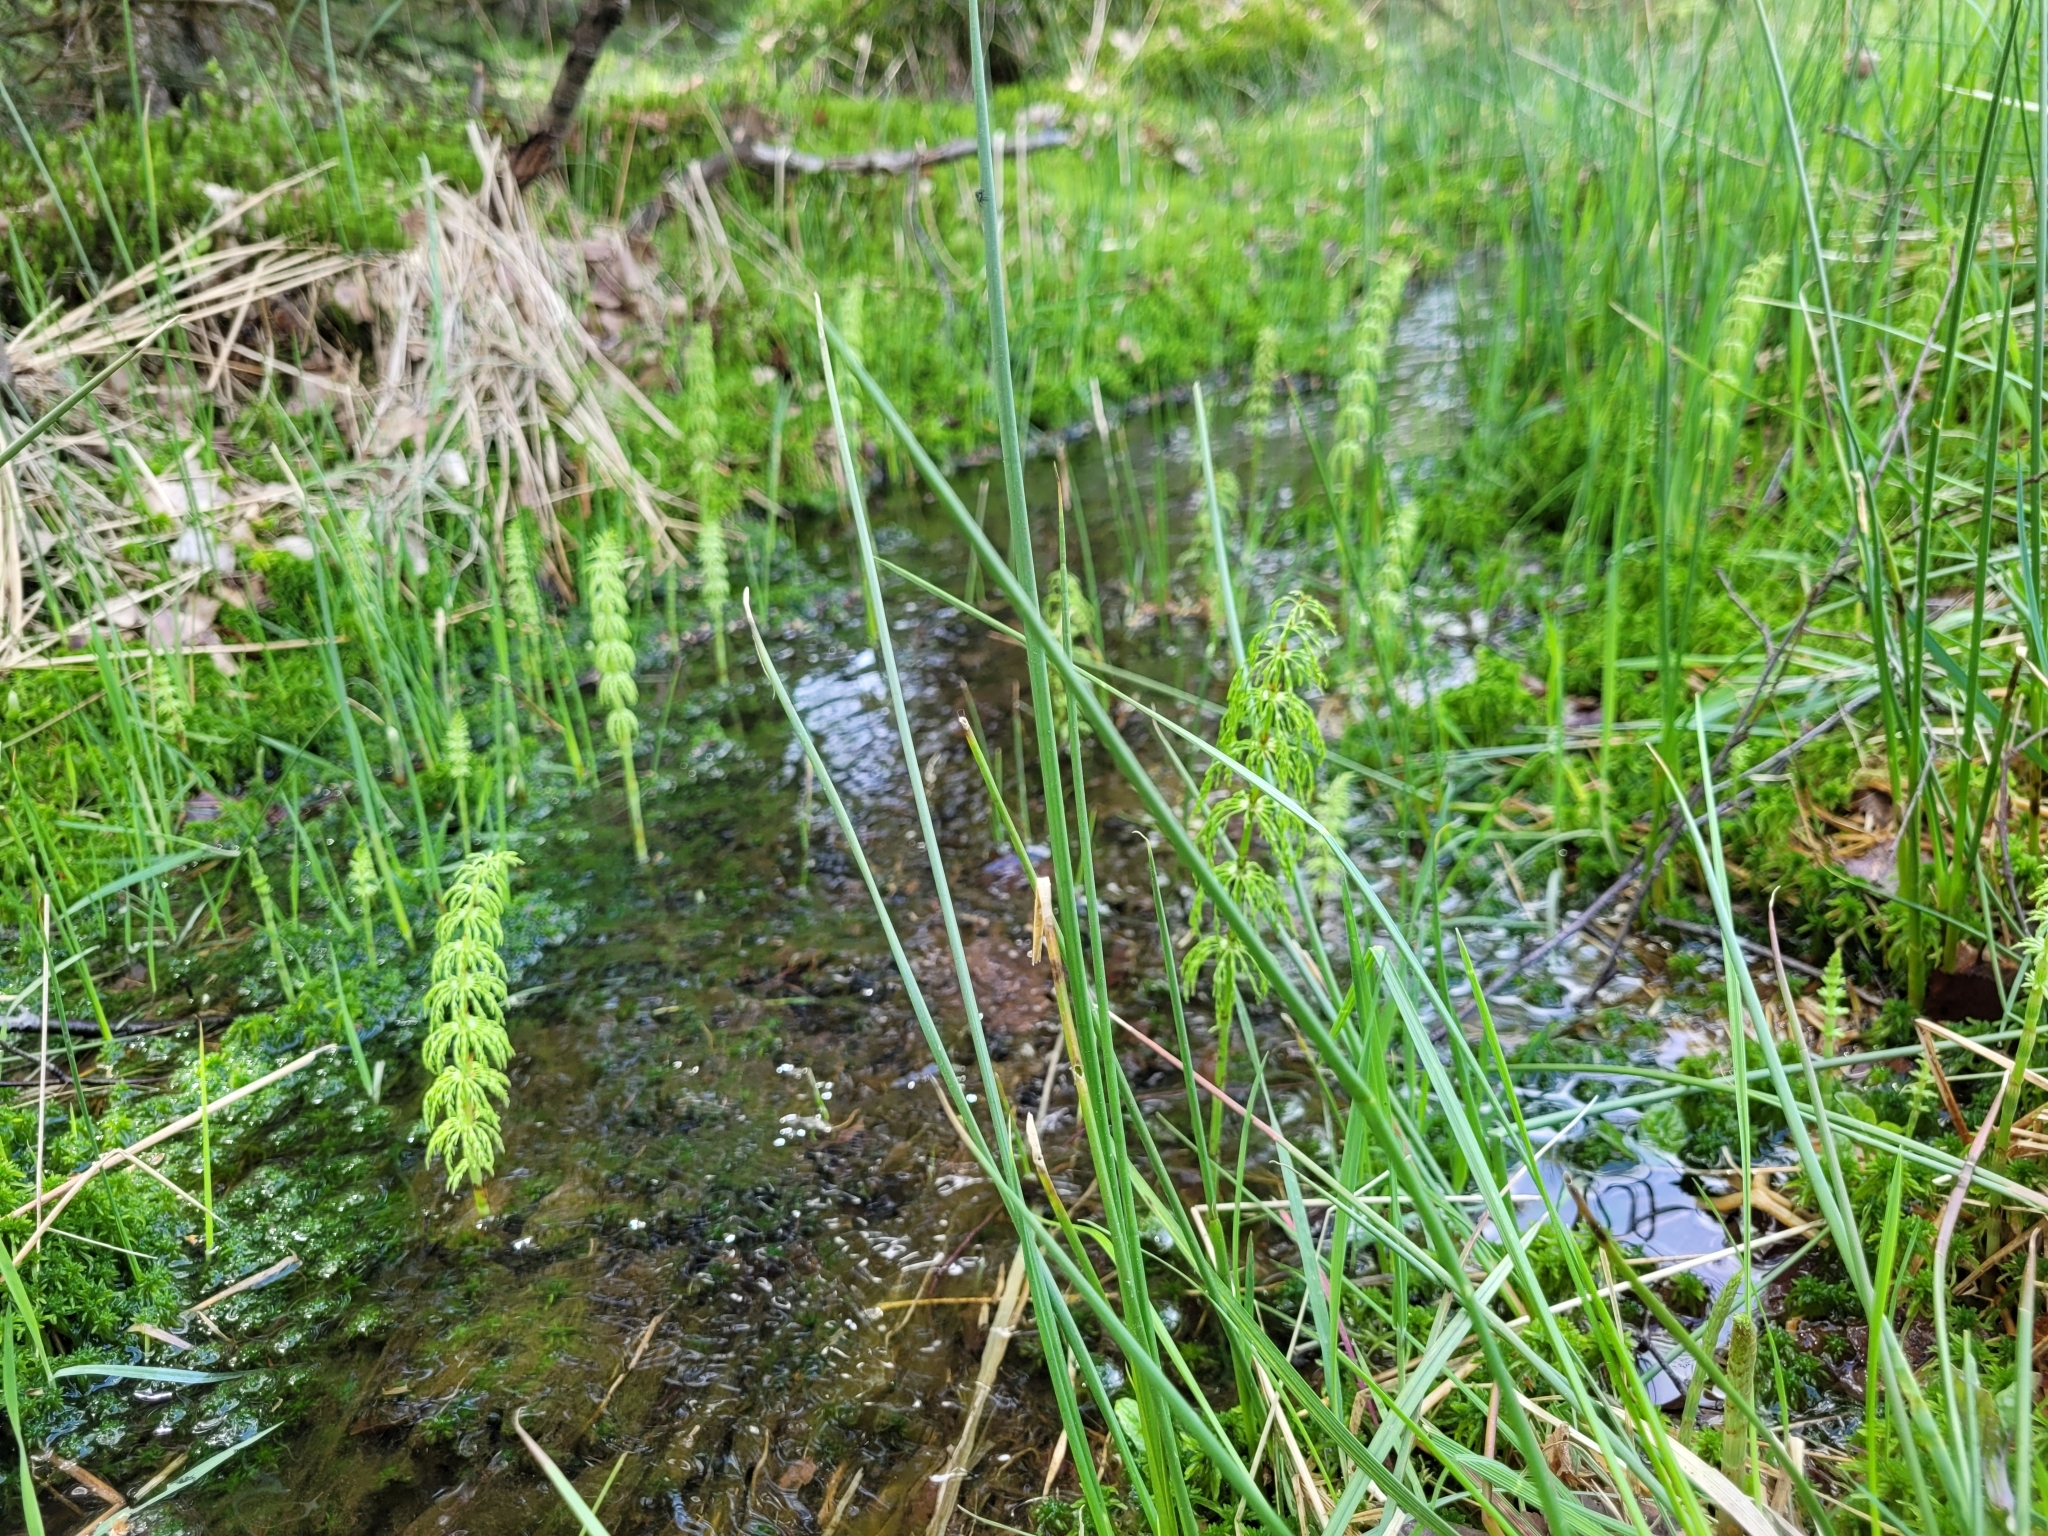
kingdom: Plantae
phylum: Tracheophyta
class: Polypodiopsida
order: Equisetales
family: Equisetaceae
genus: Equisetum
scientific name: Equisetum sylvaticum
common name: Wood horsetail
